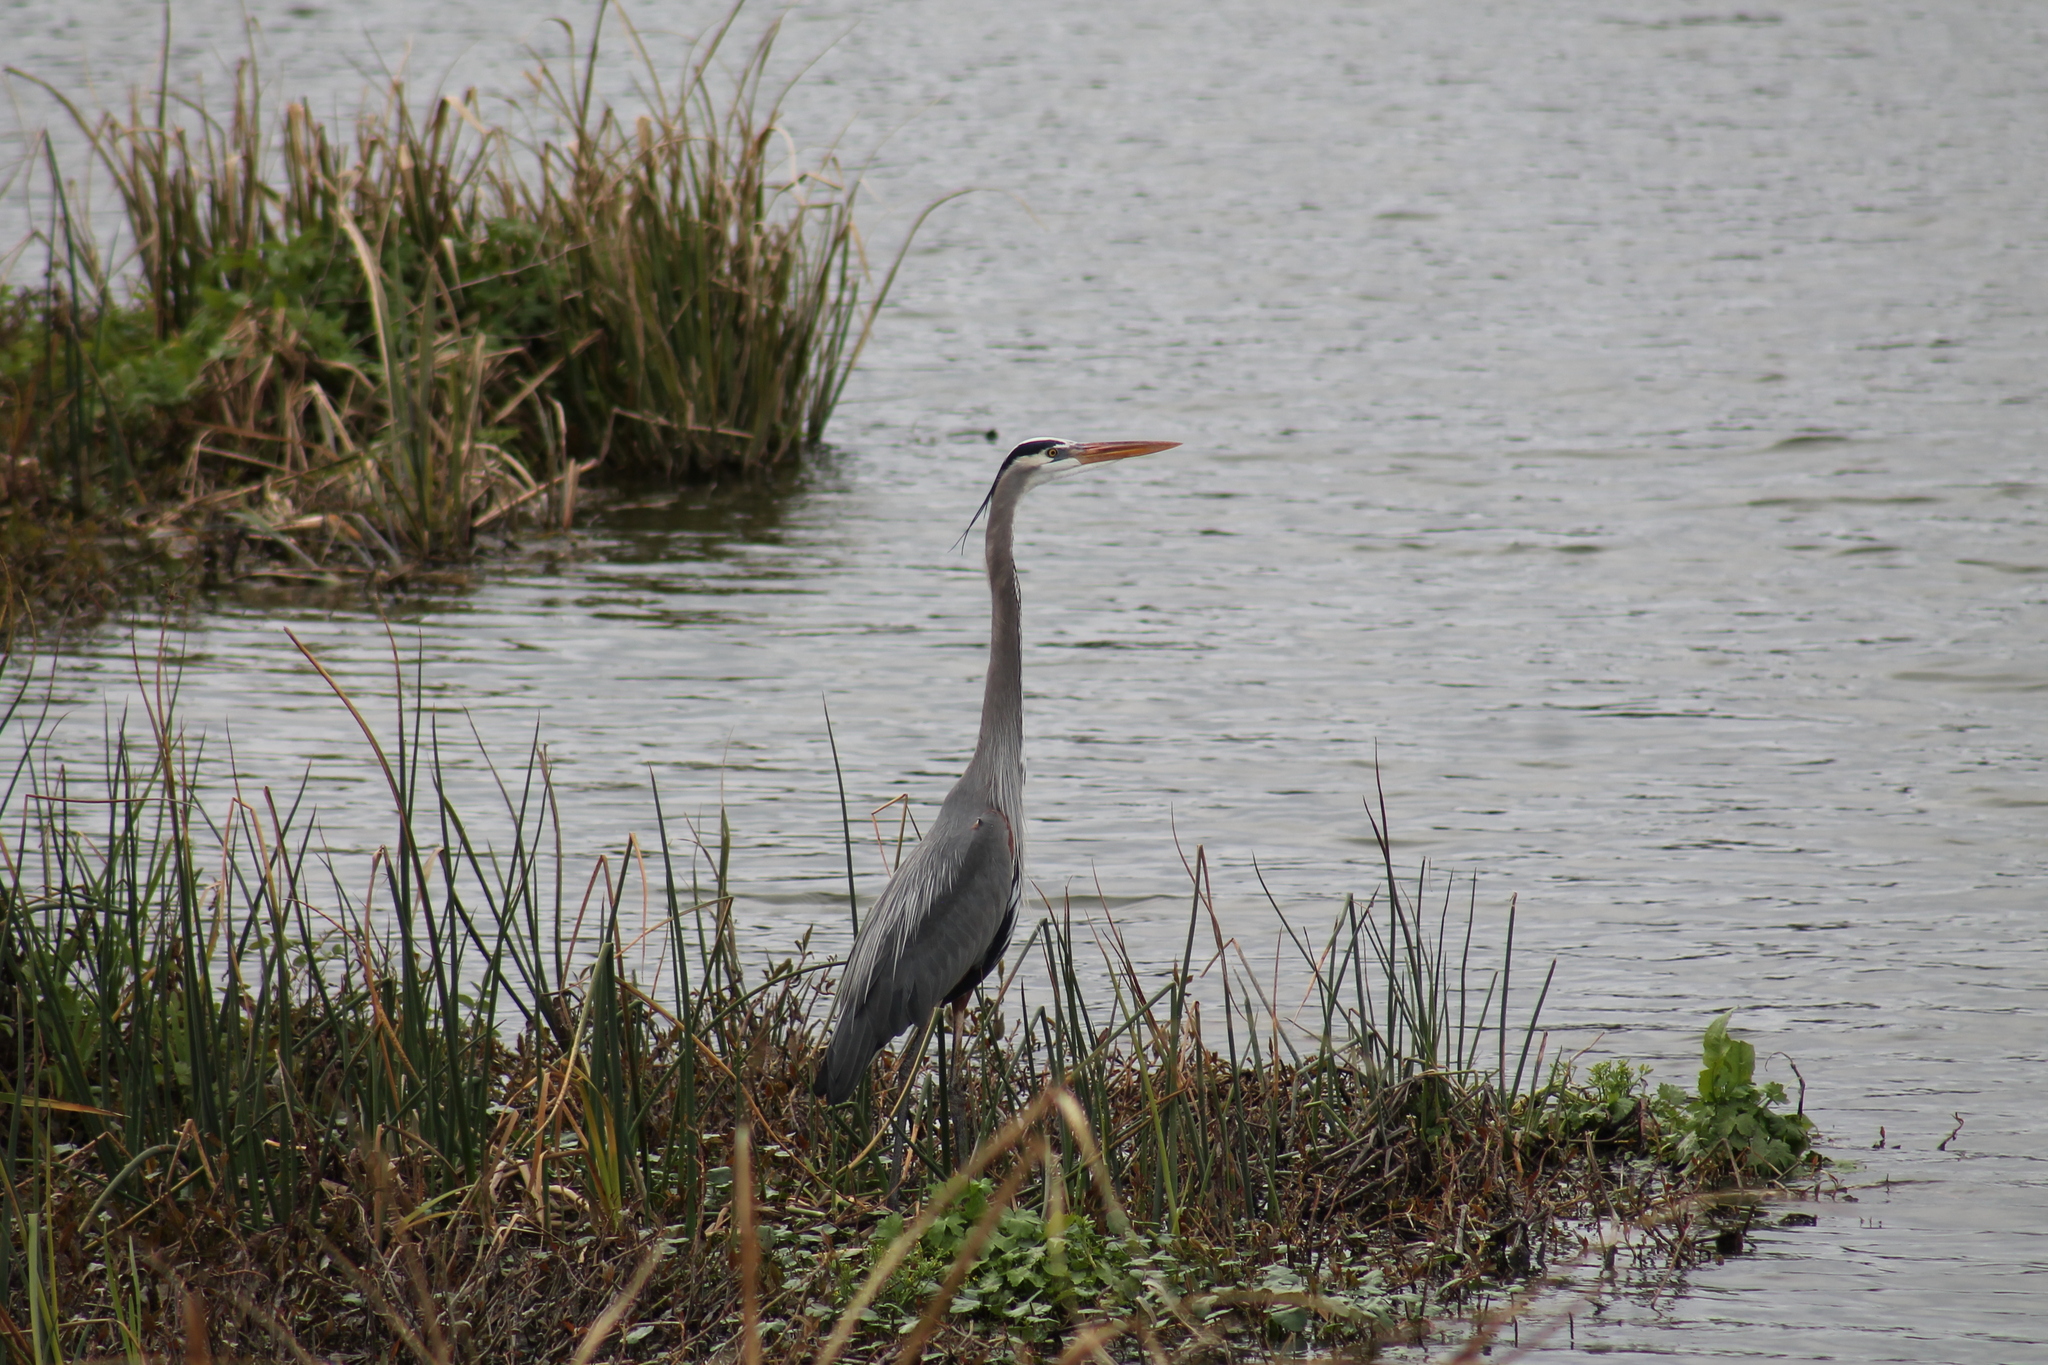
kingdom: Animalia
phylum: Chordata
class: Aves
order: Pelecaniformes
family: Ardeidae
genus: Ardea
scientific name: Ardea herodias
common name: Great blue heron
